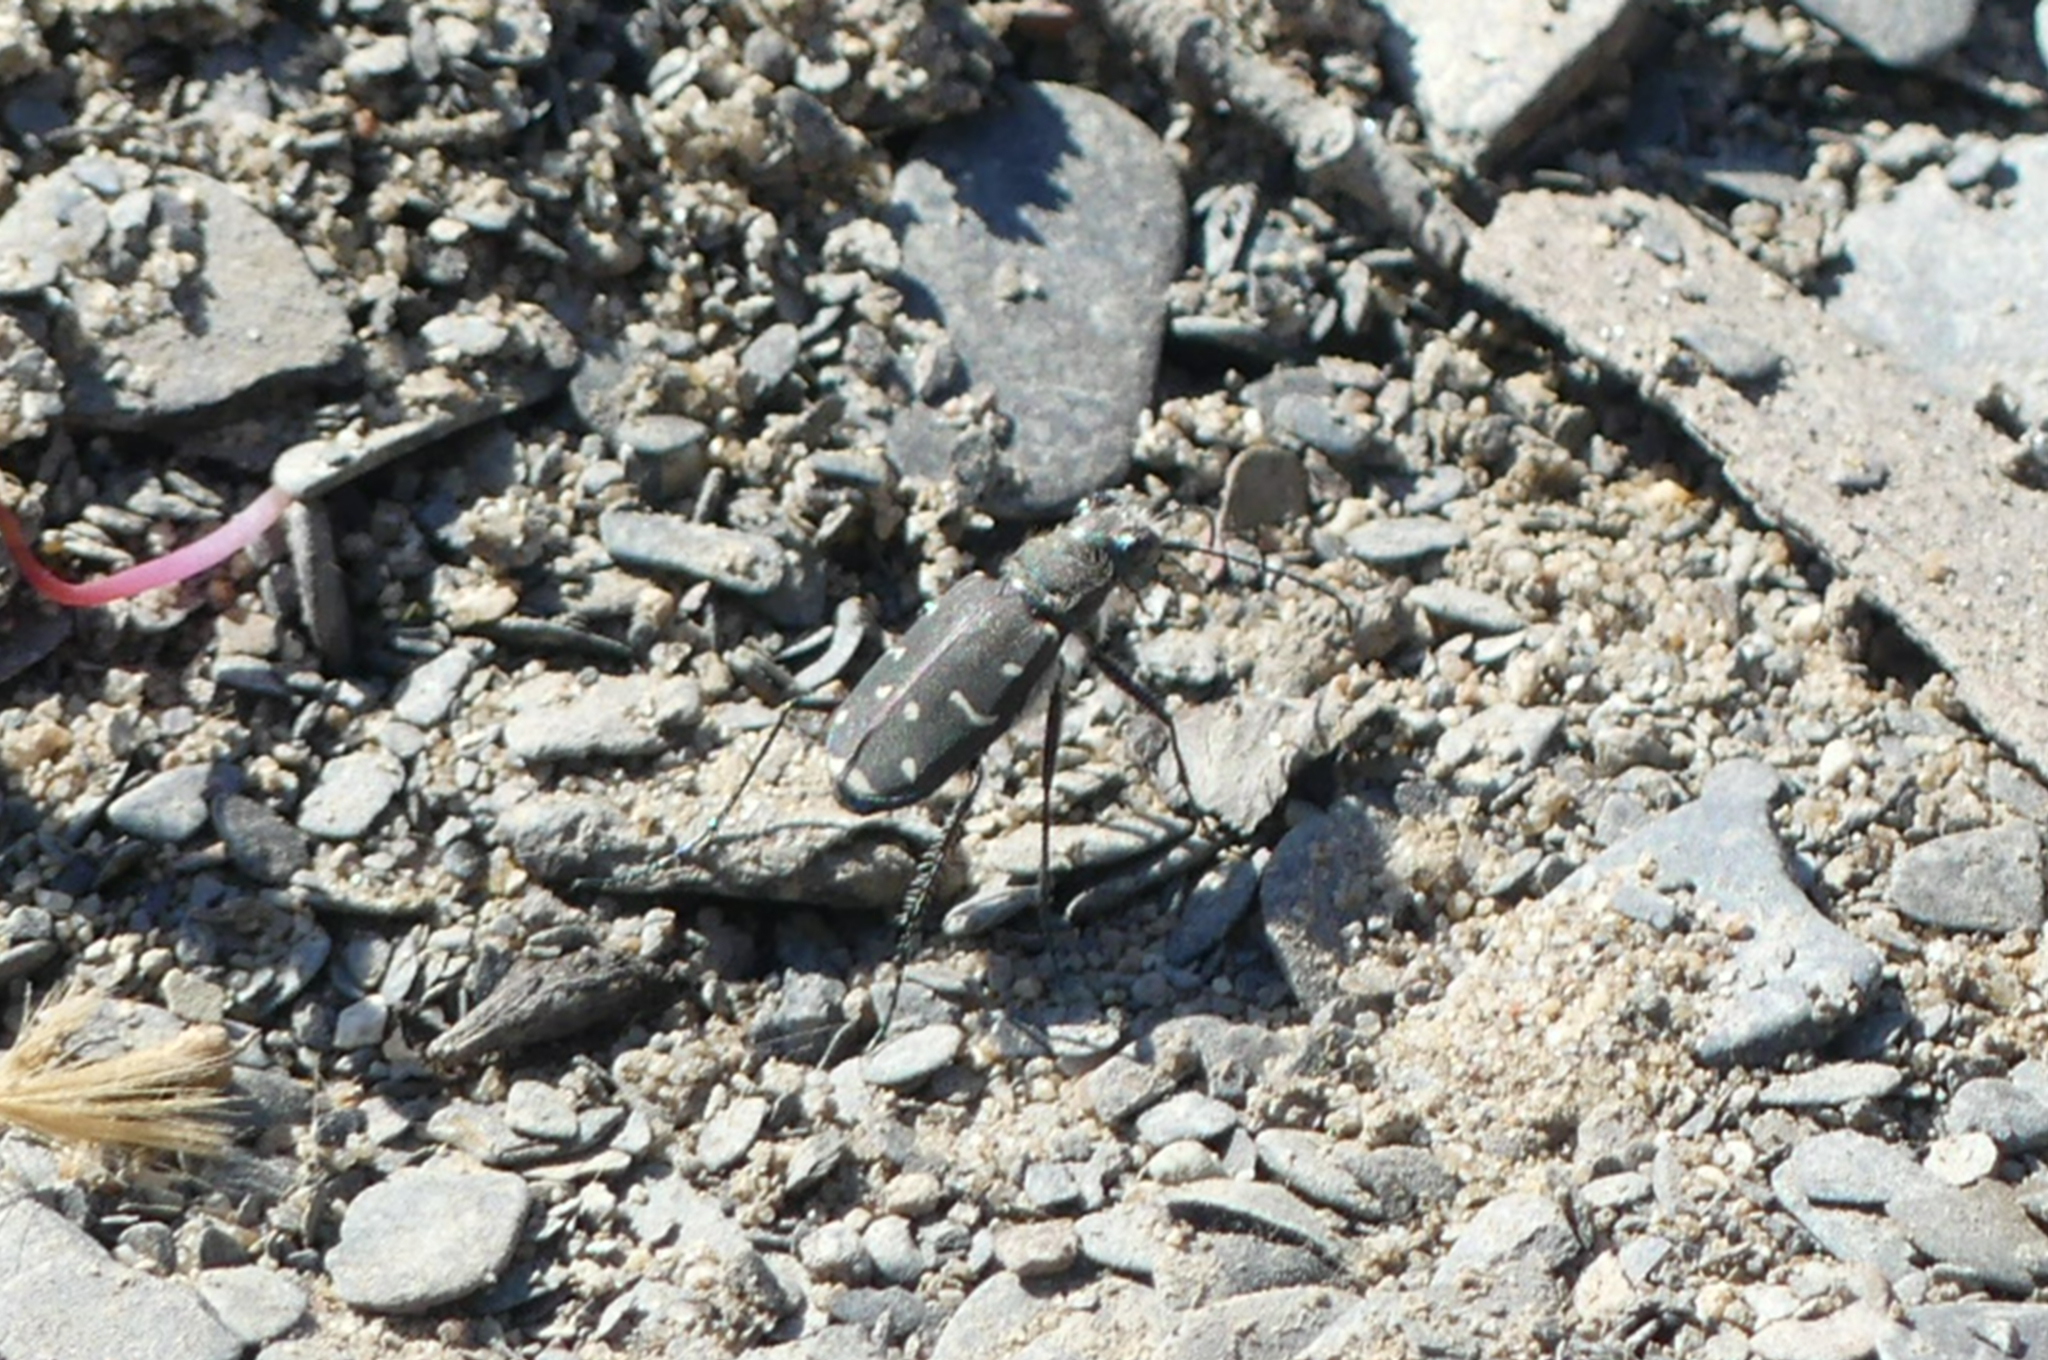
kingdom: Animalia
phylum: Arthropoda
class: Insecta
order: Coleoptera
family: Carabidae
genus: Cicindela
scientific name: Cicindela duodecimguttata
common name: Twelve-spotted tiger beetle
